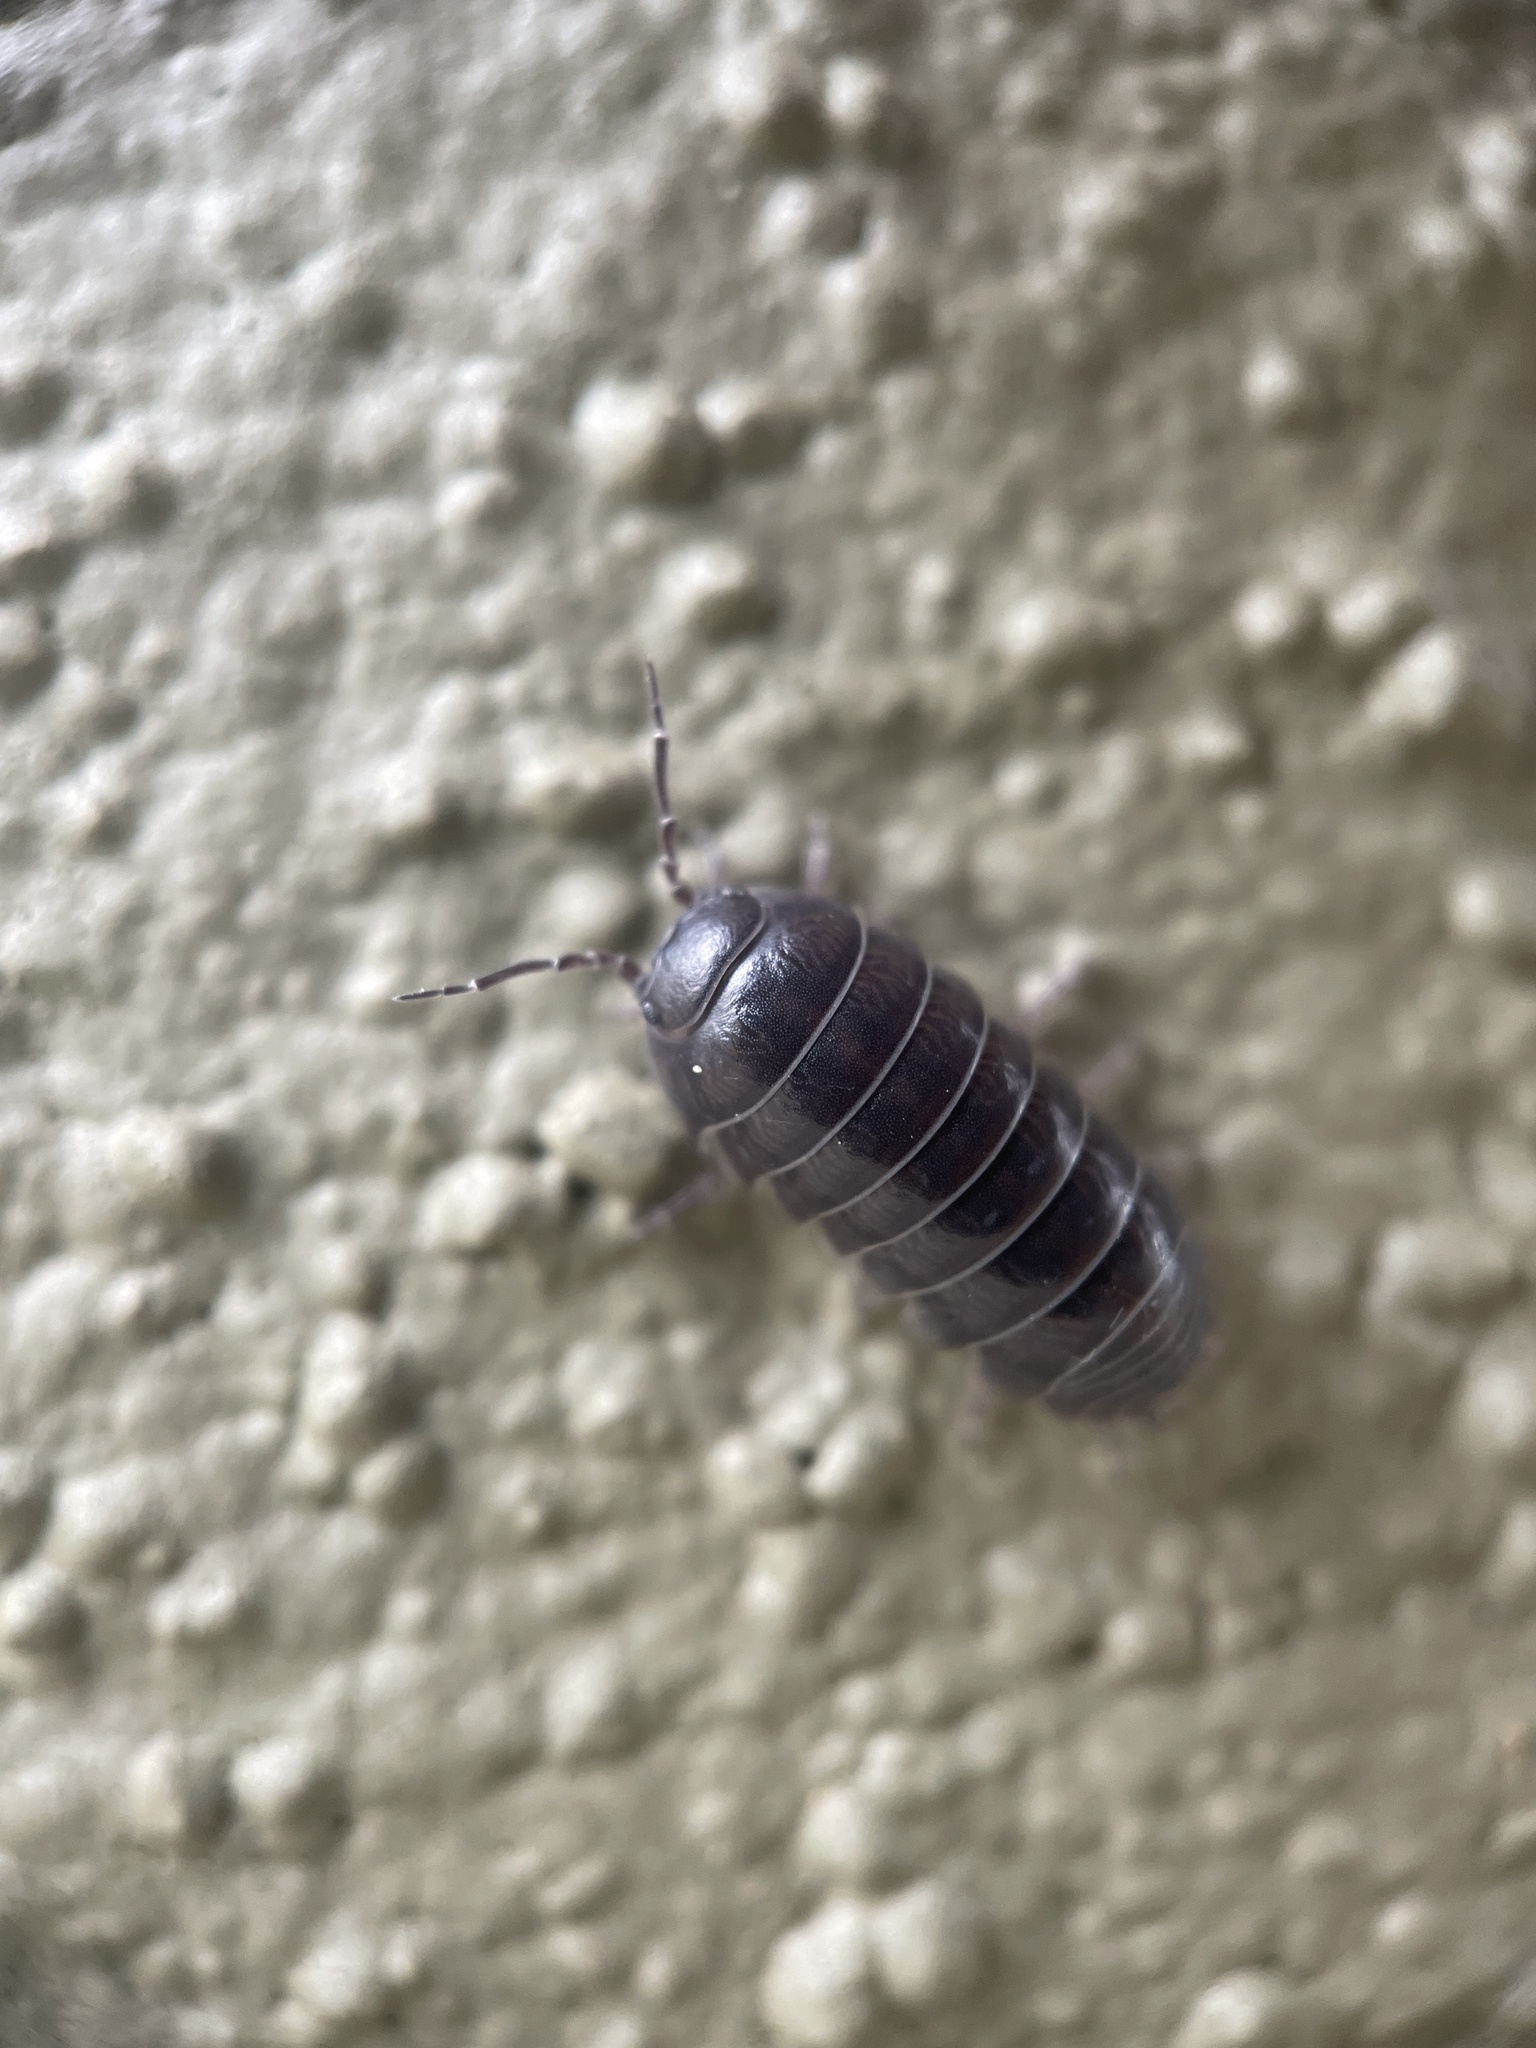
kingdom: Animalia
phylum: Arthropoda
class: Malacostraca
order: Isopoda
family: Armadillidiidae
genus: Armadillidium
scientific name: Armadillidium vulgare
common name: Common pill woodlouse
